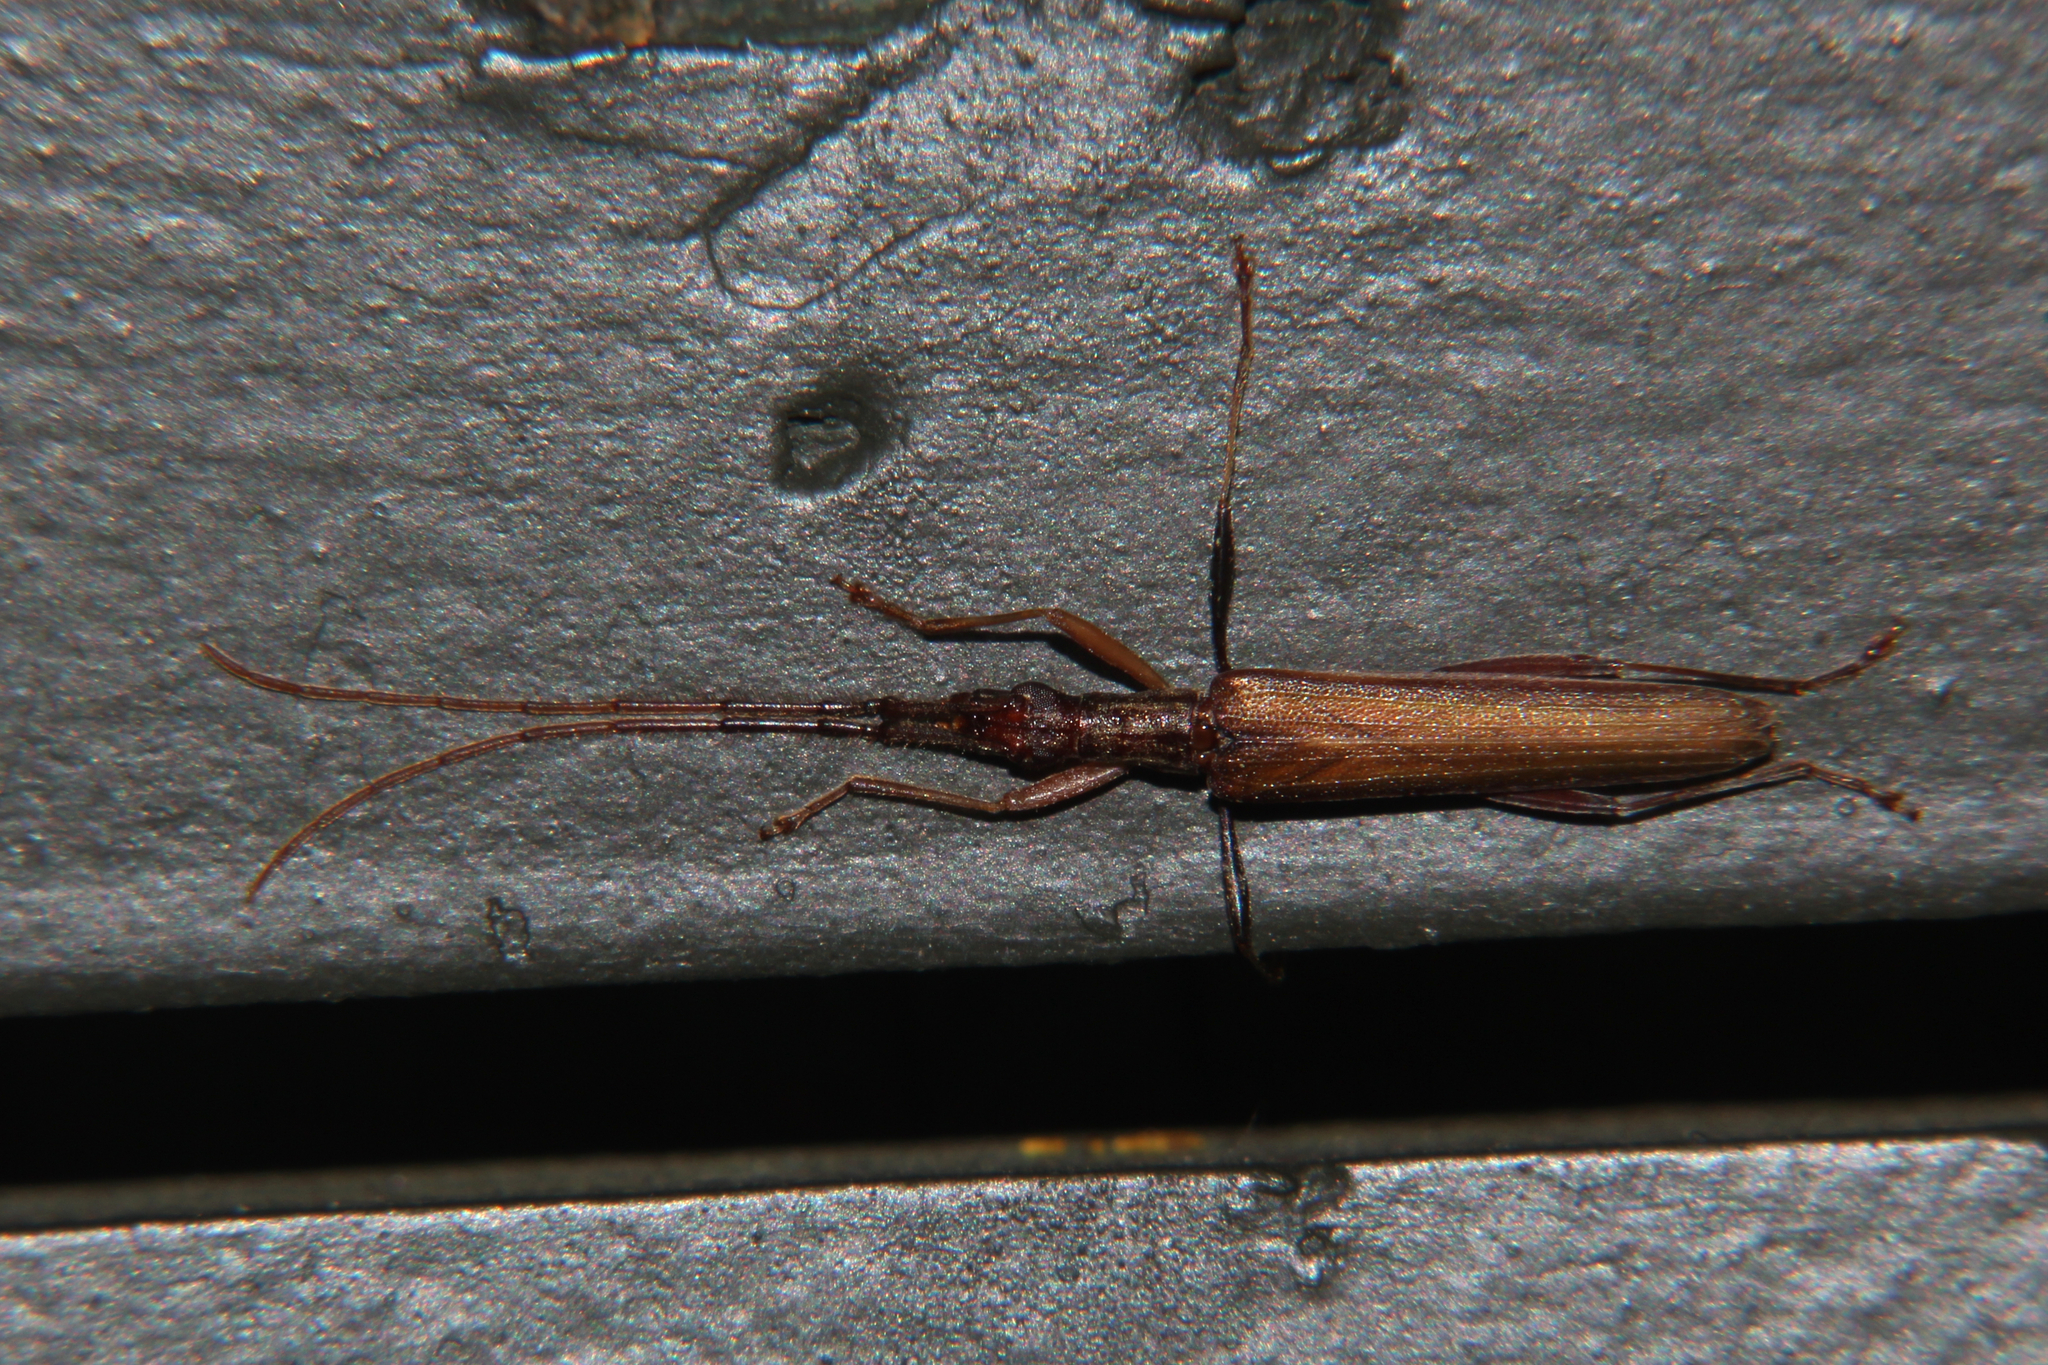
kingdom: Animalia
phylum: Arthropoda
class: Insecta
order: Coleoptera
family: Cerambycidae
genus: Stenopotes
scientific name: Stenopotes pallidus
